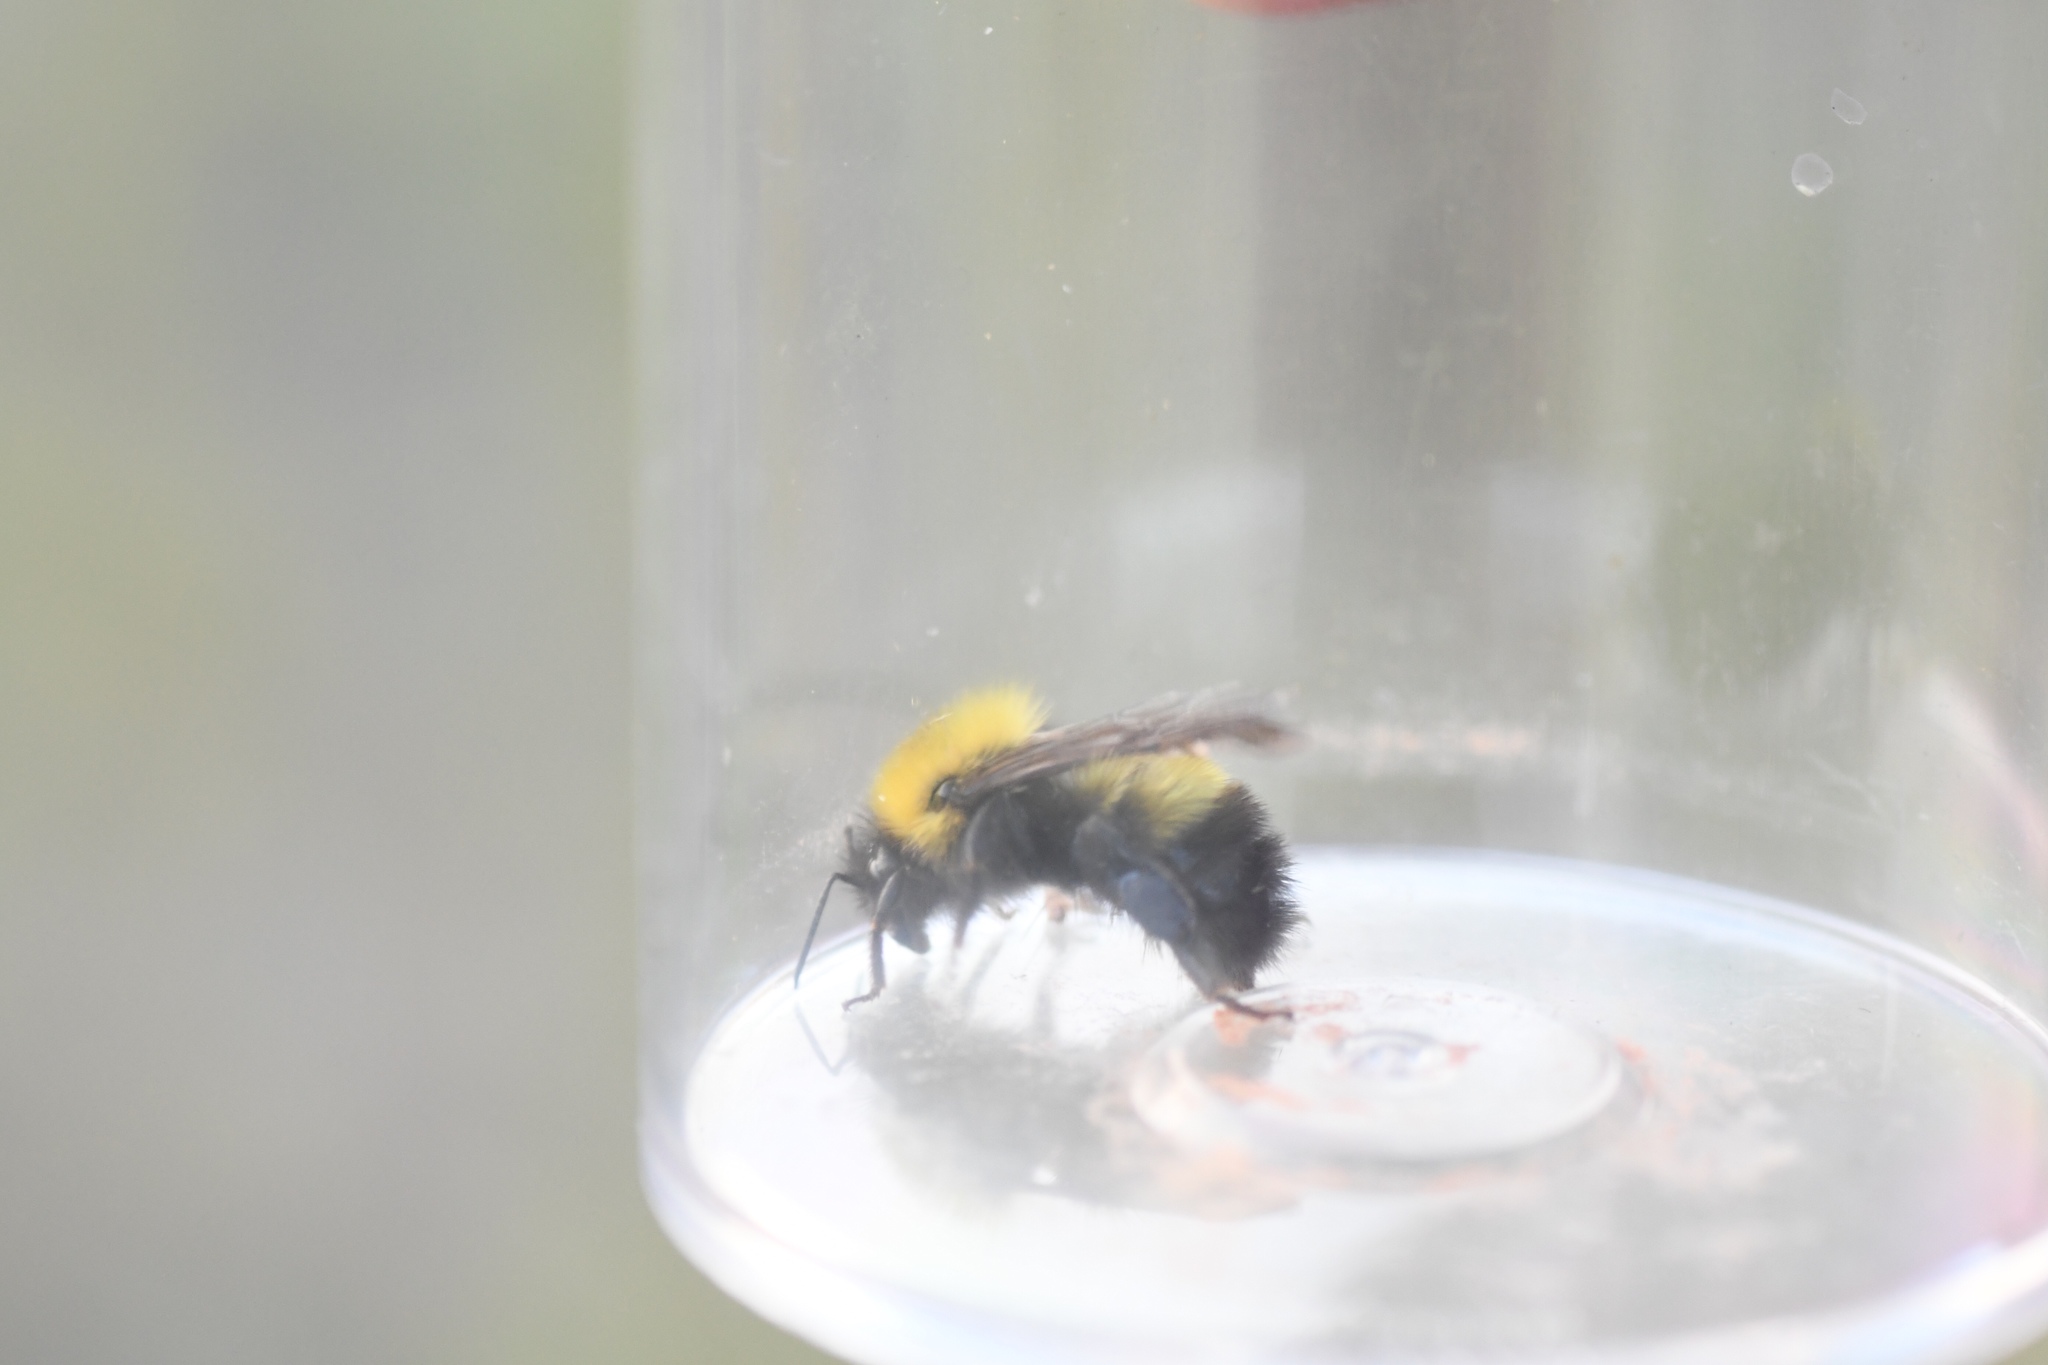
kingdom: Animalia
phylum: Arthropoda
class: Insecta
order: Hymenoptera
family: Apidae
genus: Bombus
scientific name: Bombus perplexus
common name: Confusing bumble bee
